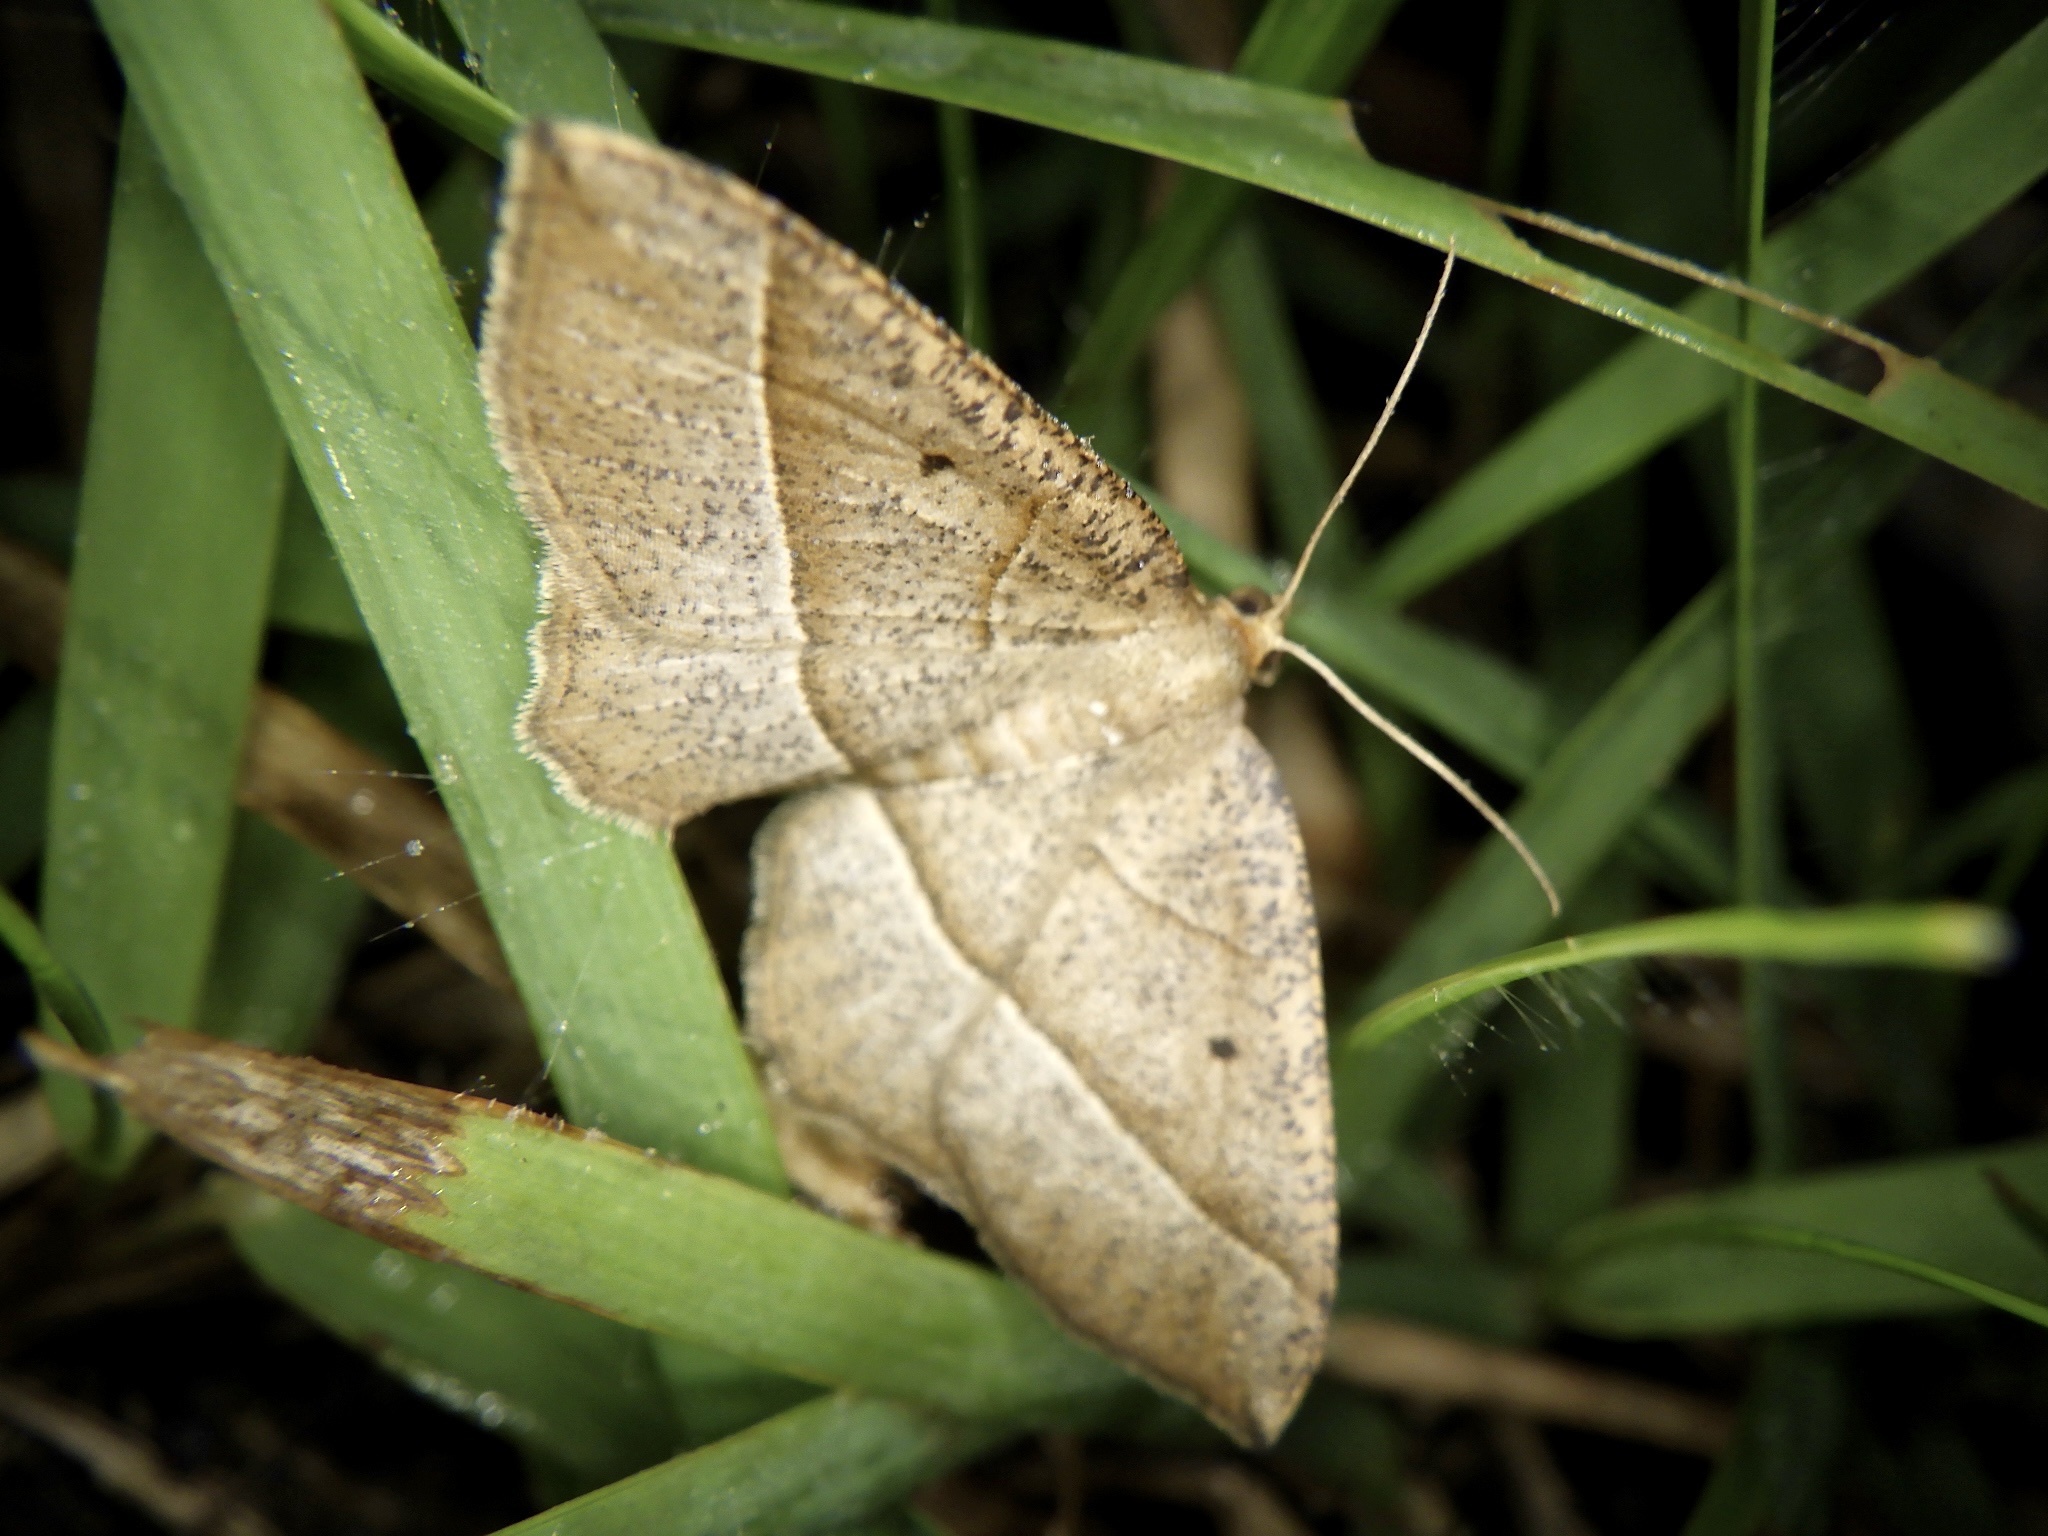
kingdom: Animalia
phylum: Arthropoda
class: Insecta
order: Lepidoptera
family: Geometridae
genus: Rhynchobapta
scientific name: Rhynchobapta cervinaria
